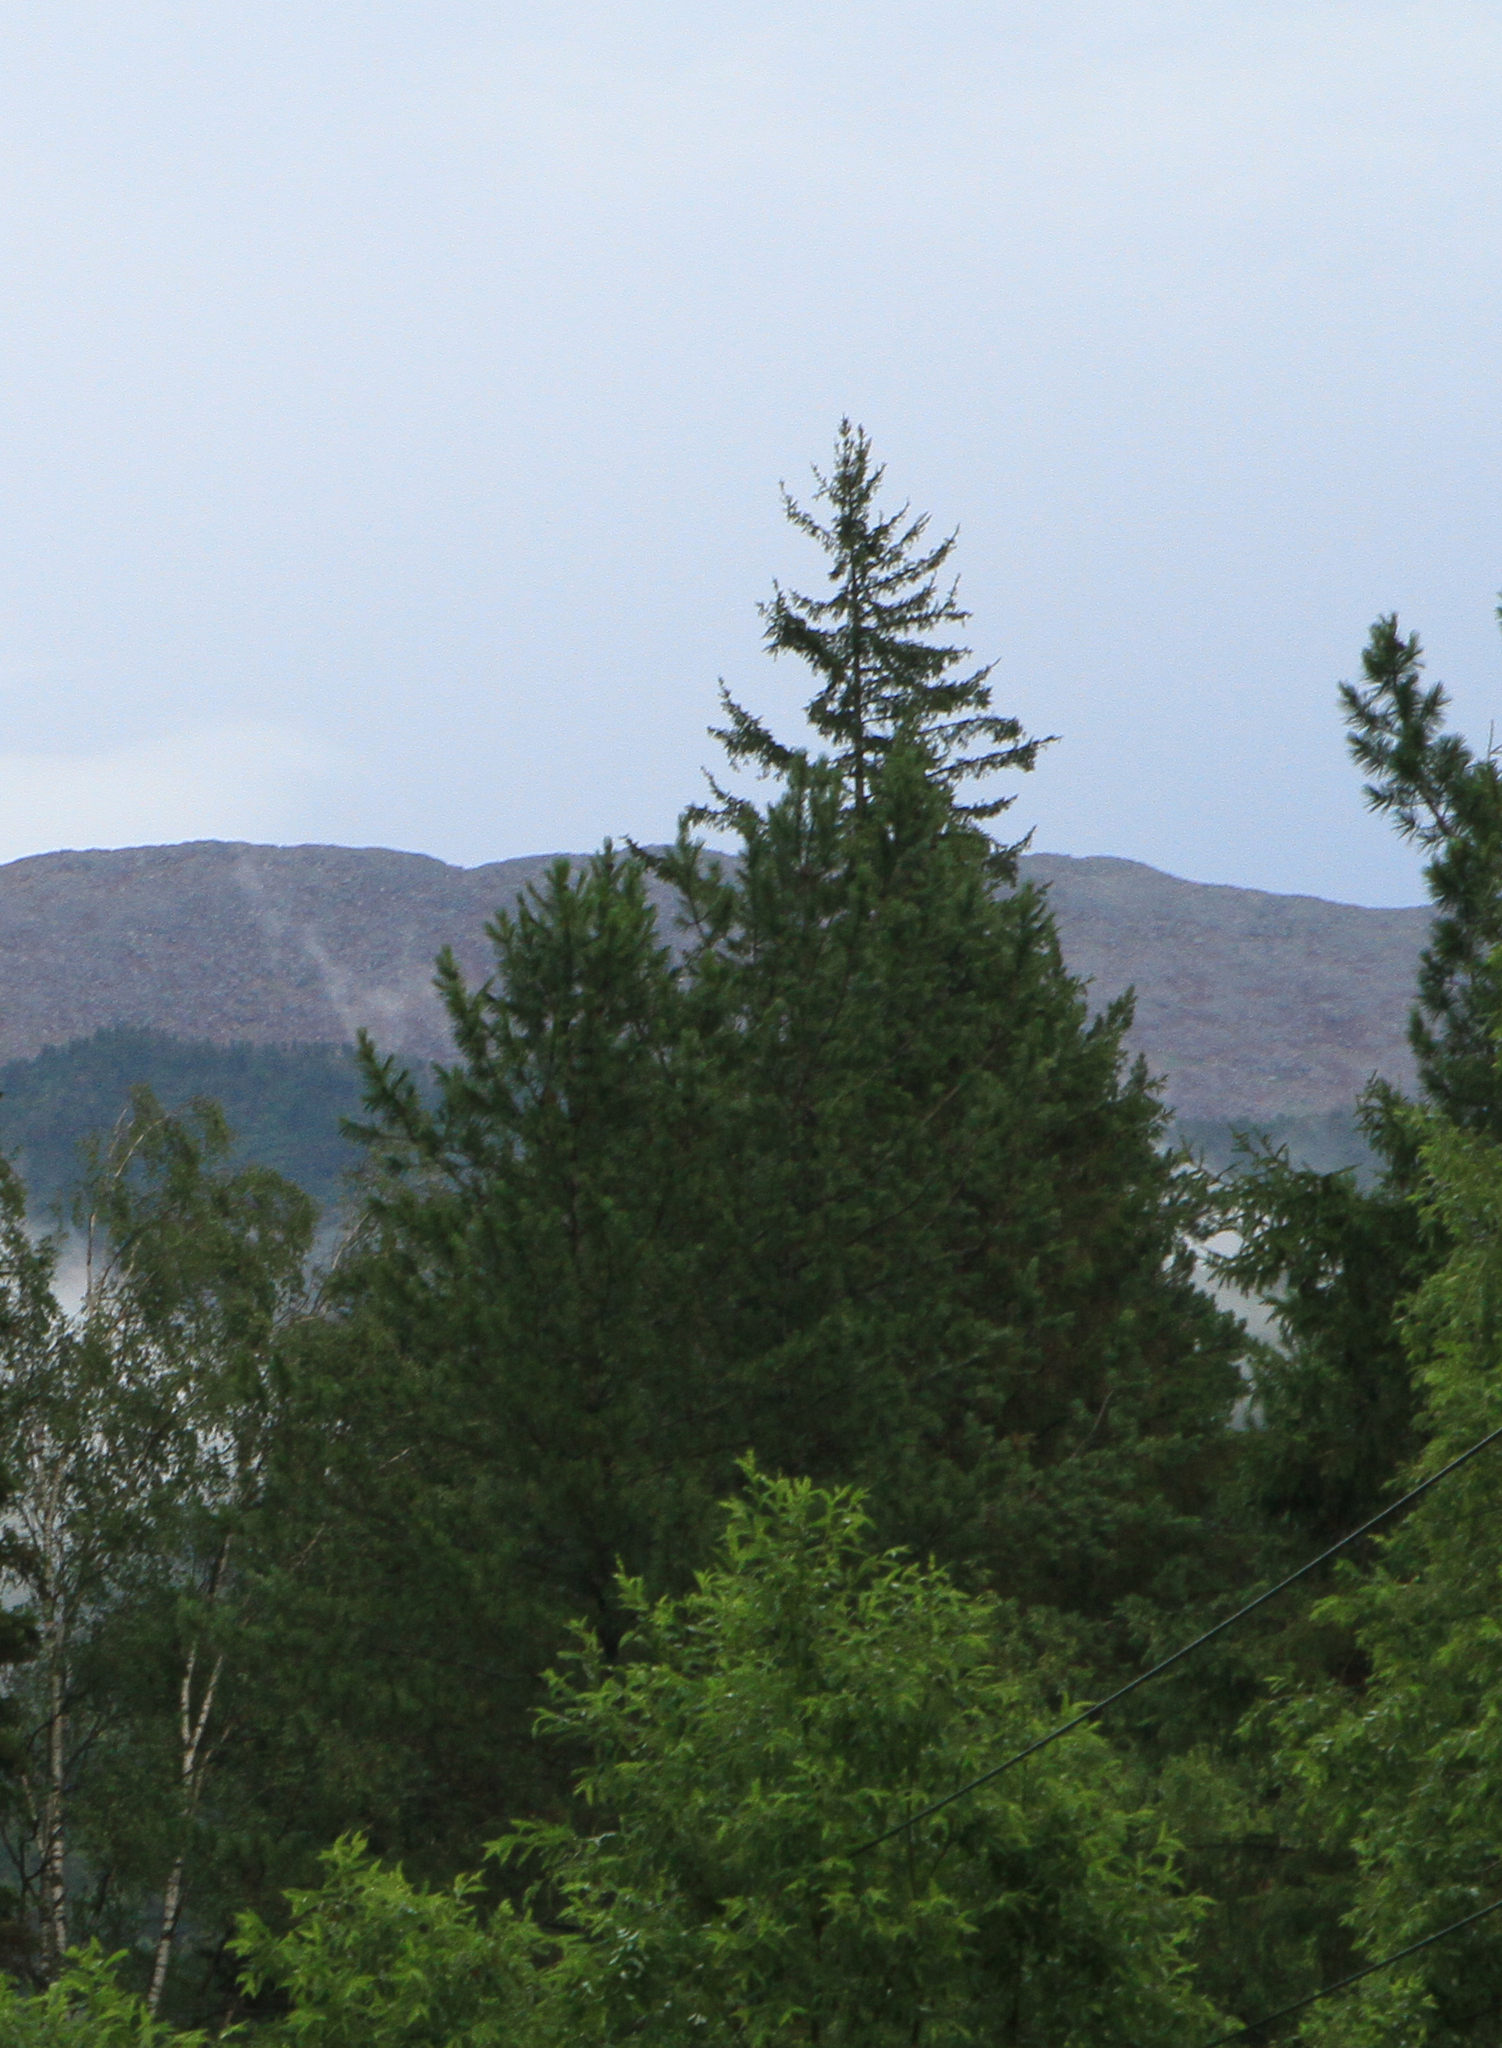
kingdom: Plantae
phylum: Tracheophyta
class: Pinopsida
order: Pinales
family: Pinaceae
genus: Picea
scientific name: Picea obovata
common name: Siberian spruce
